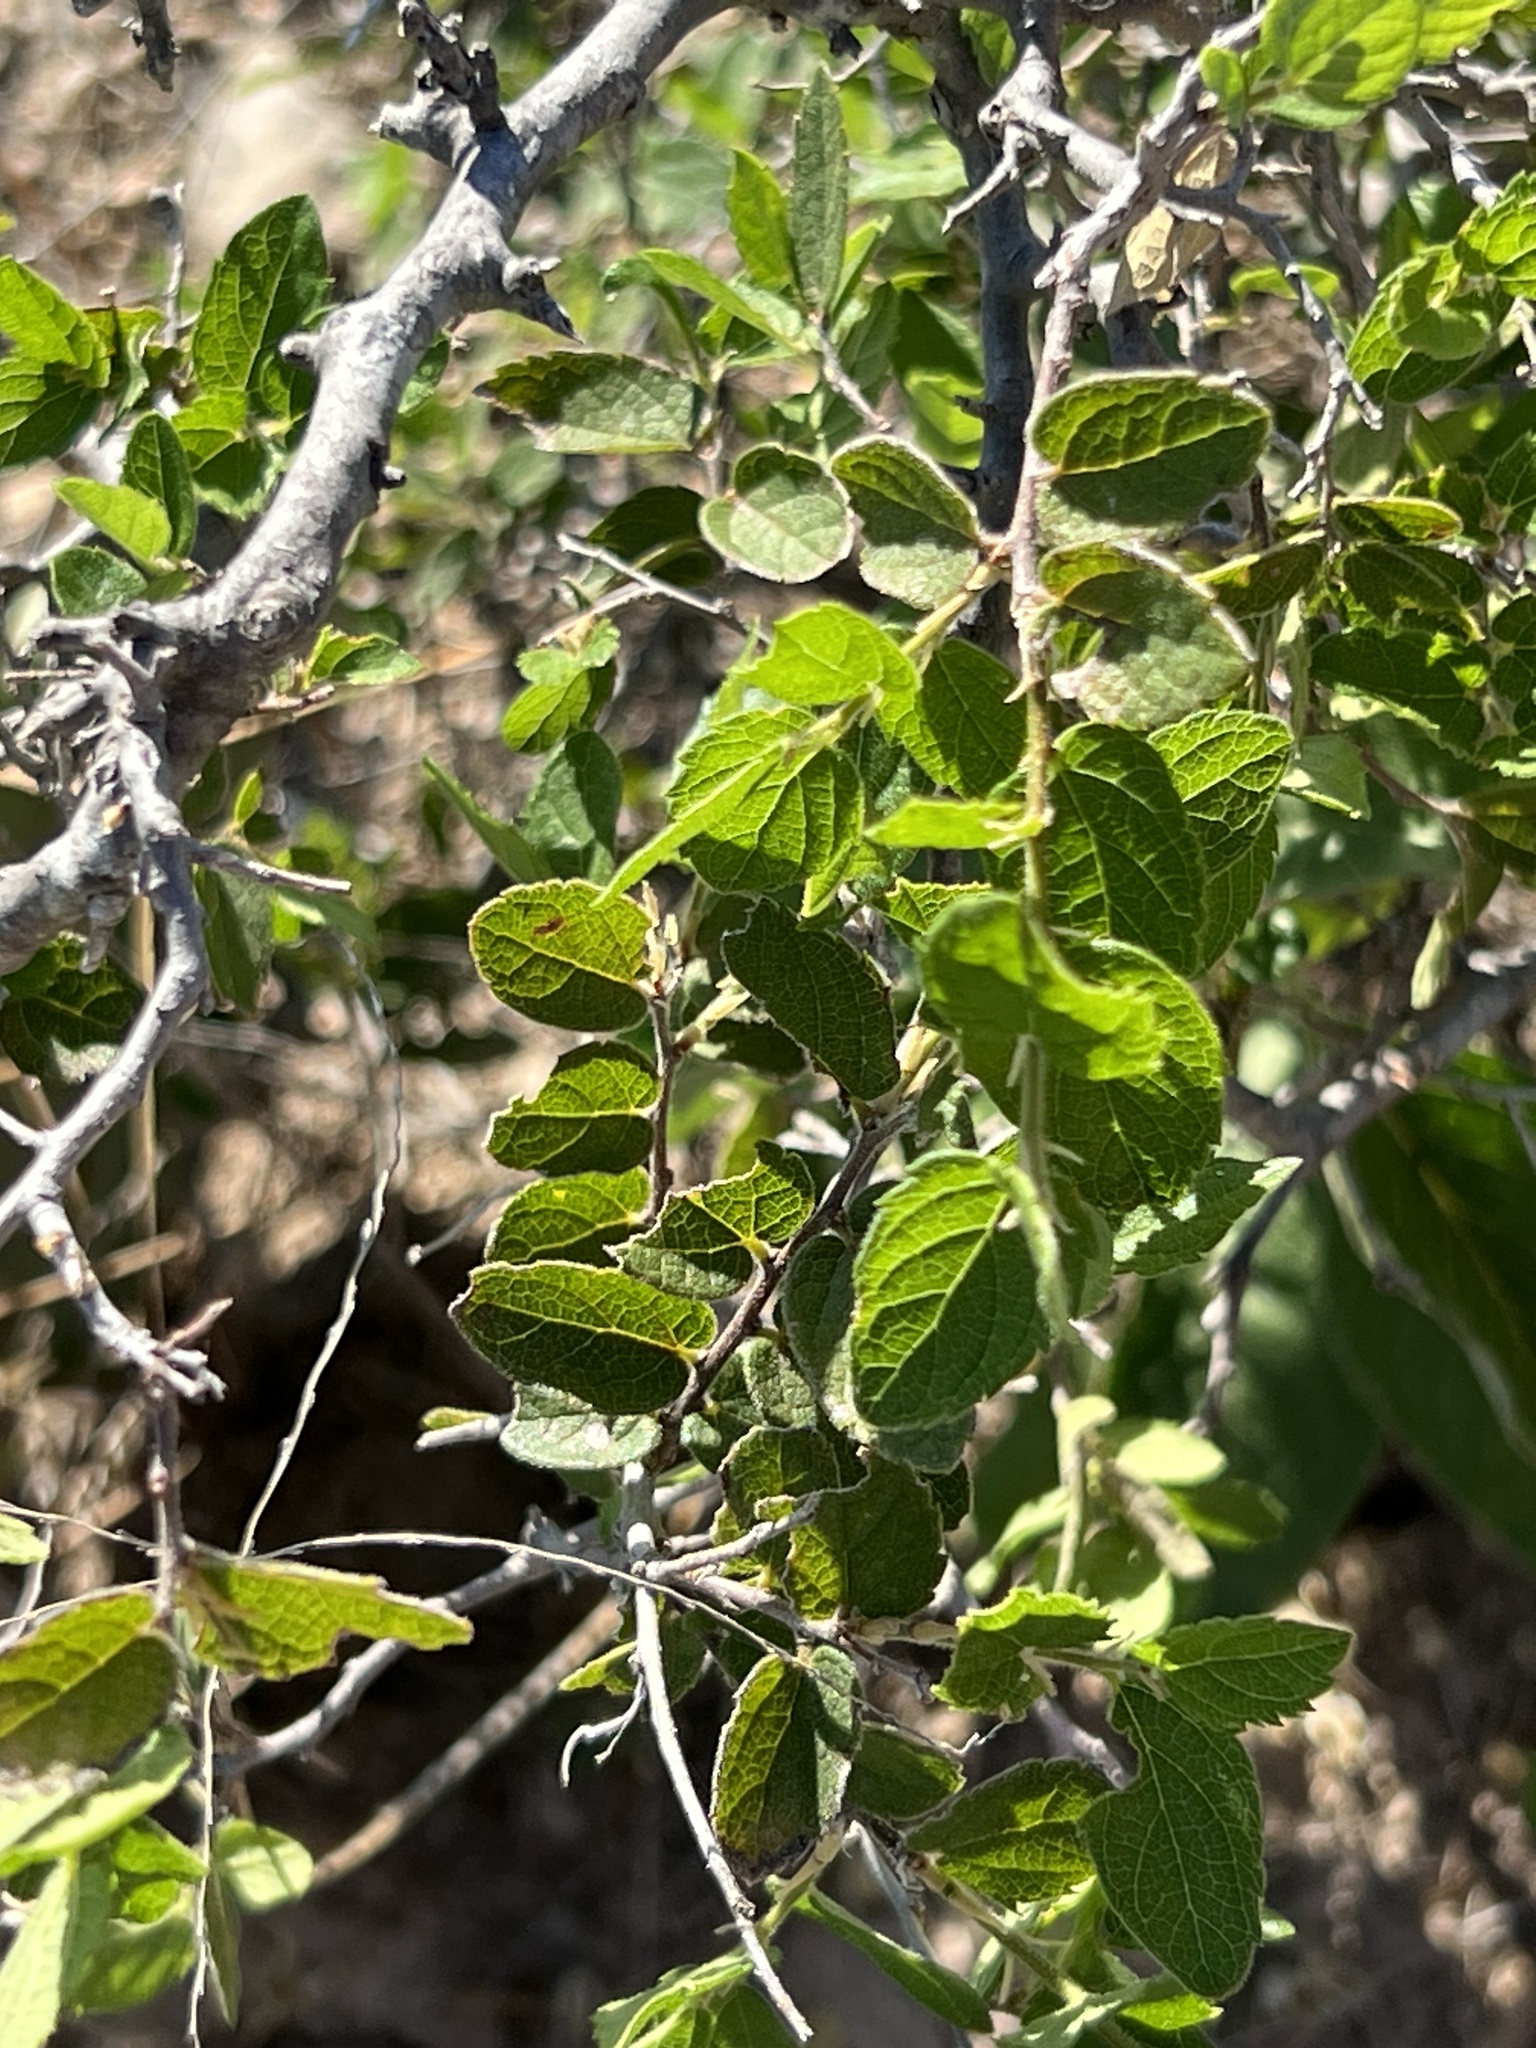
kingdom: Plantae
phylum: Tracheophyta
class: Magnoliopsida
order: Rosales
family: Cannabaceae
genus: Celtis
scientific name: Celtis reticulata
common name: Netleaf hackberry
